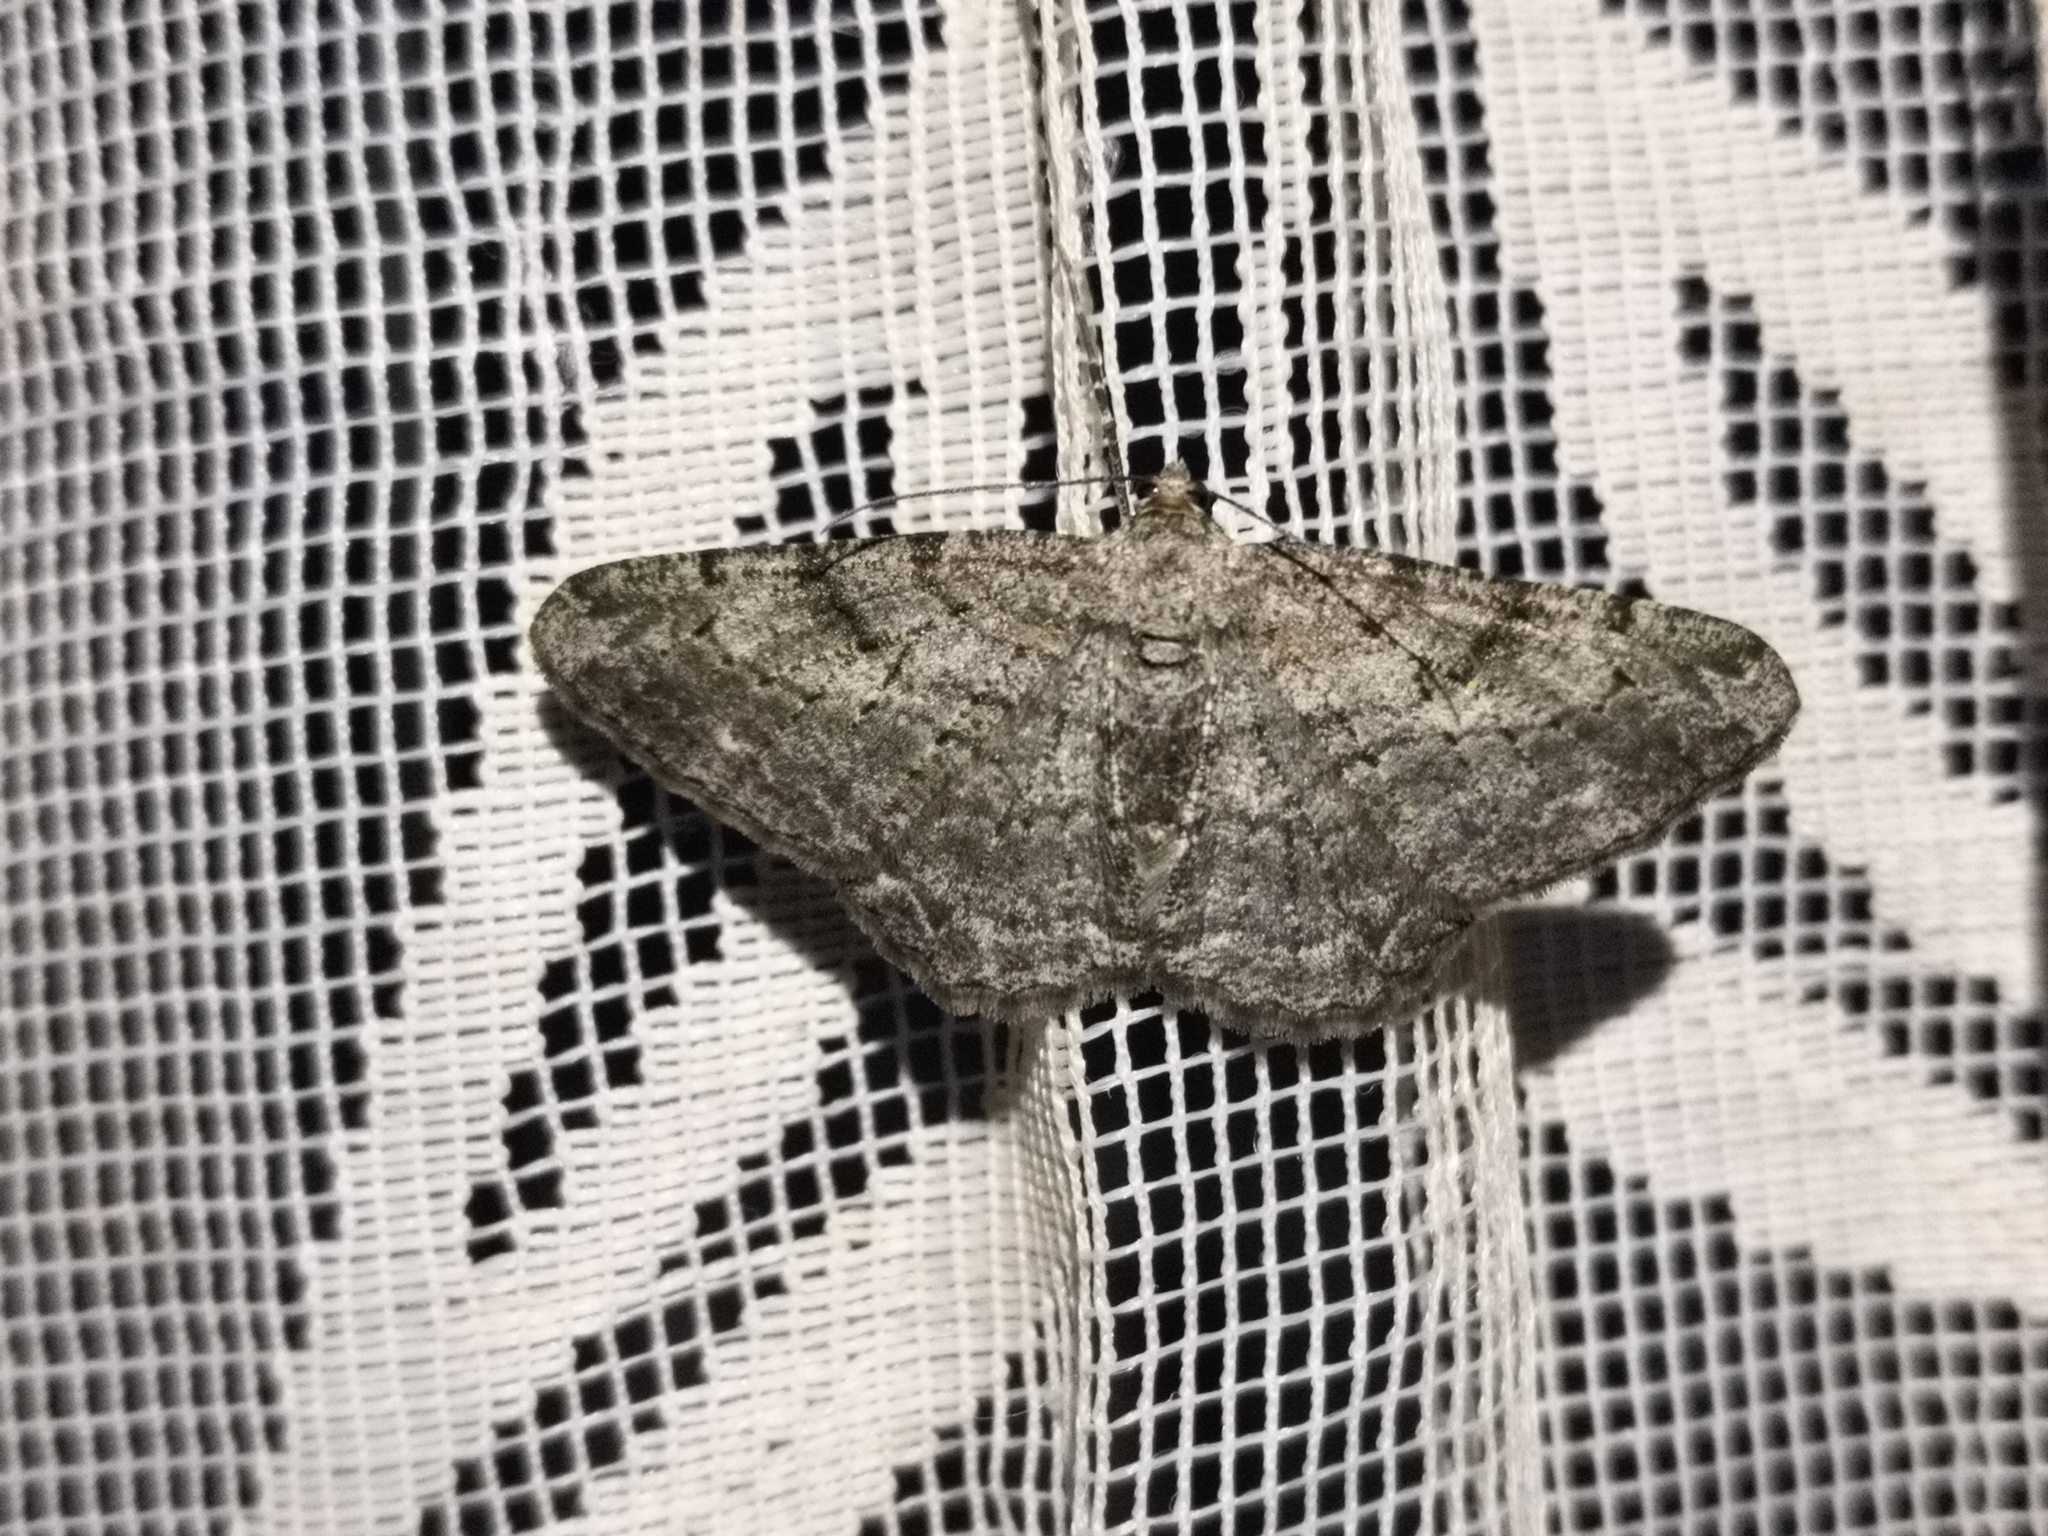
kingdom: Animalia
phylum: Arthropoda
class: Insecta
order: Lepidoptera
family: Geometridae
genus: Peribatodes
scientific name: Peribatodes rhomboidaria
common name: Willow beauty
